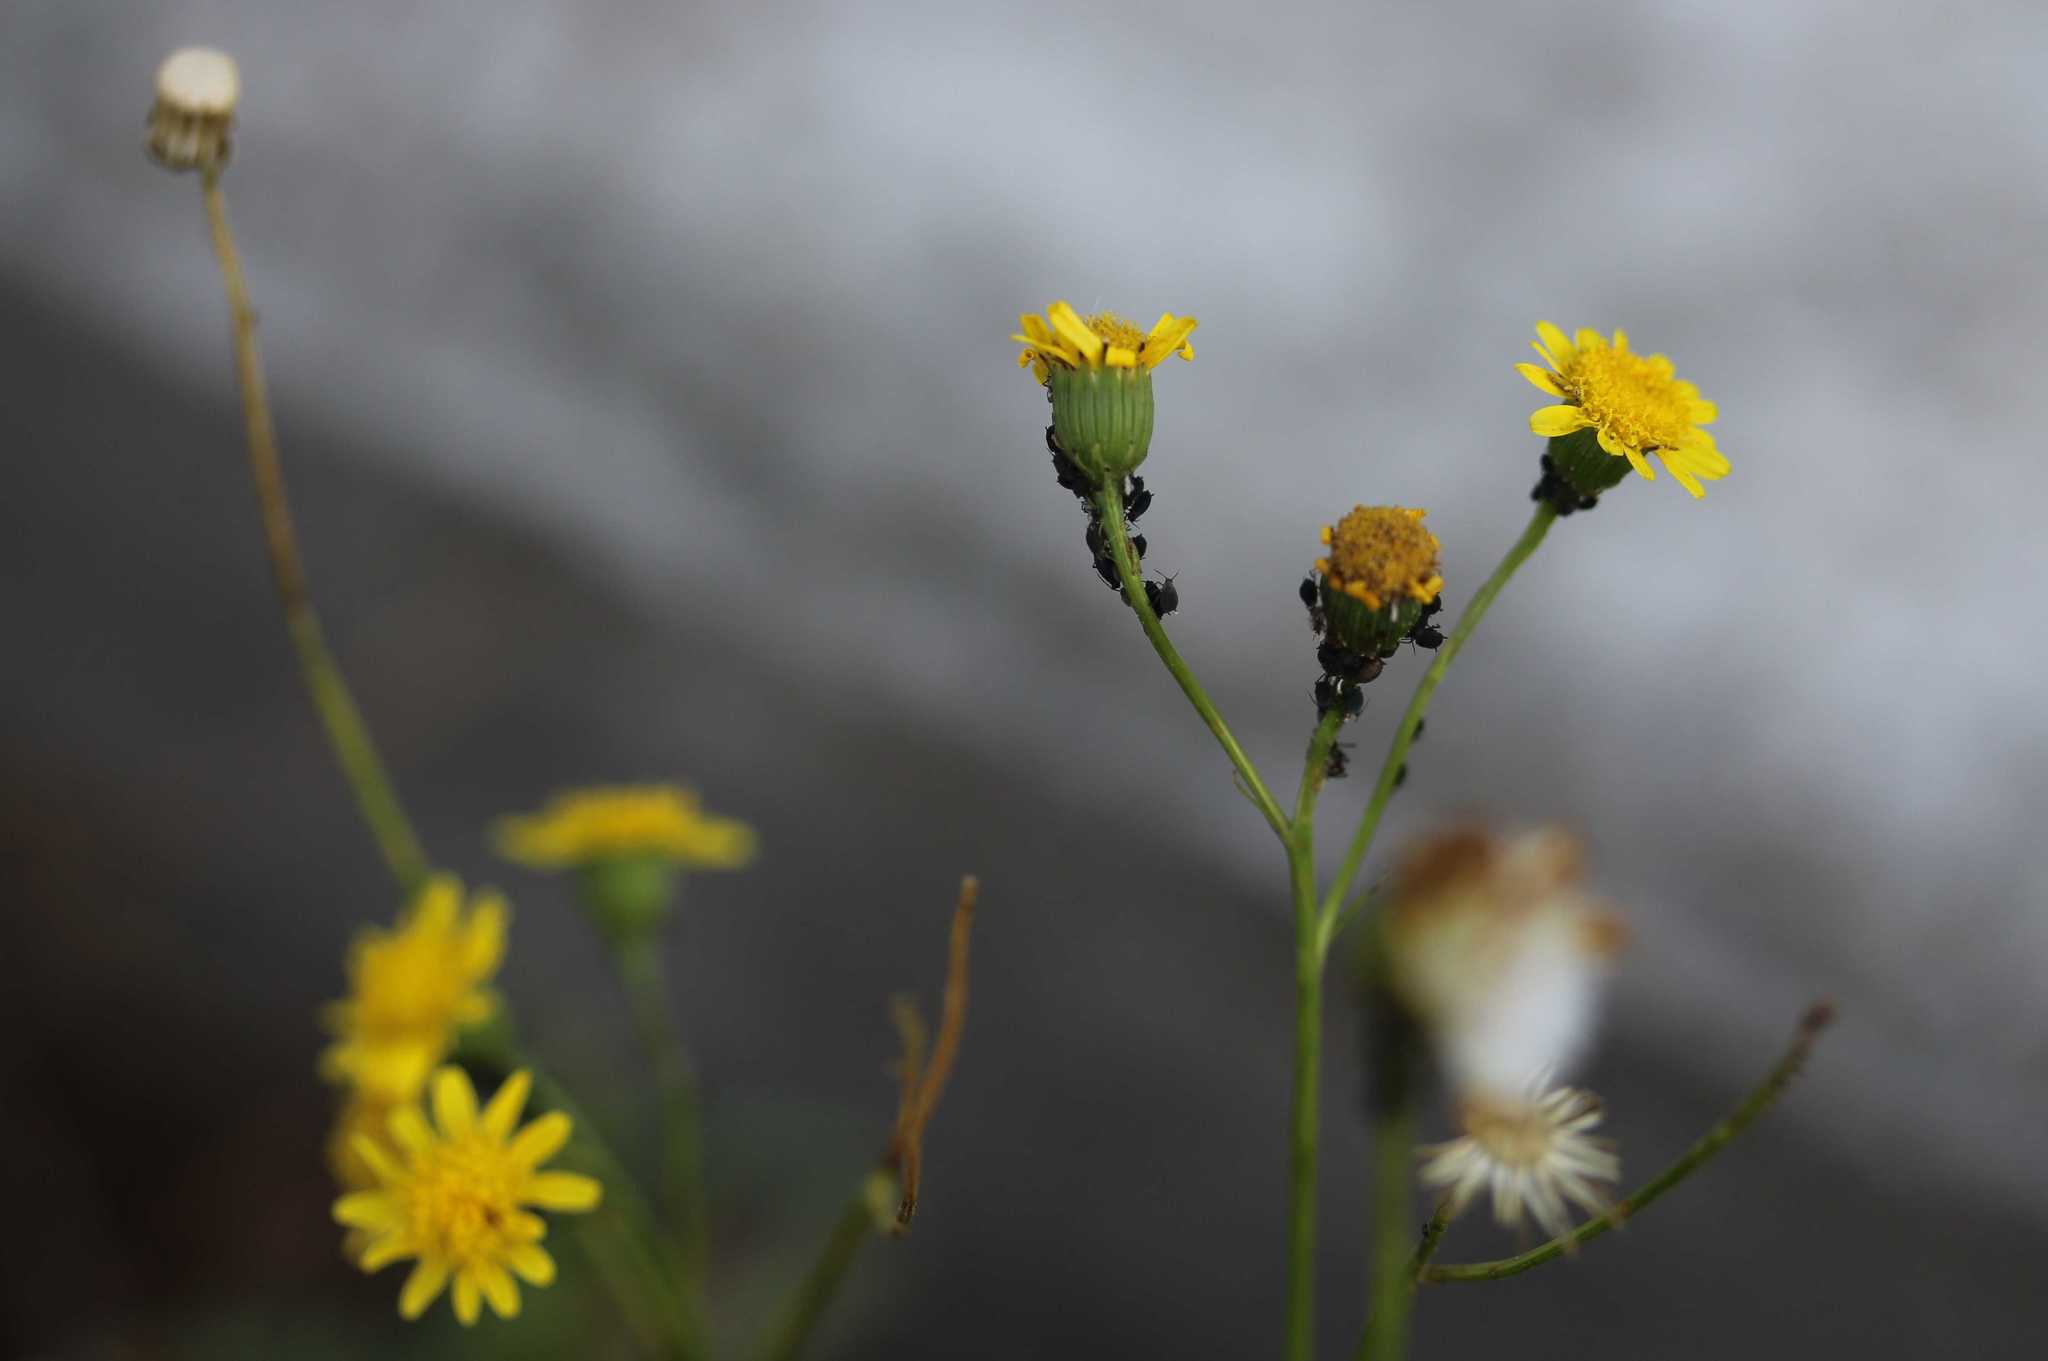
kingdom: Plantae
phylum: Tracheophyta
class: Magnoliopsida
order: Asterales
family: Asteraceae
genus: Senecio
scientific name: Senecio inaequidens
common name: Narrow-leaved ragwort
